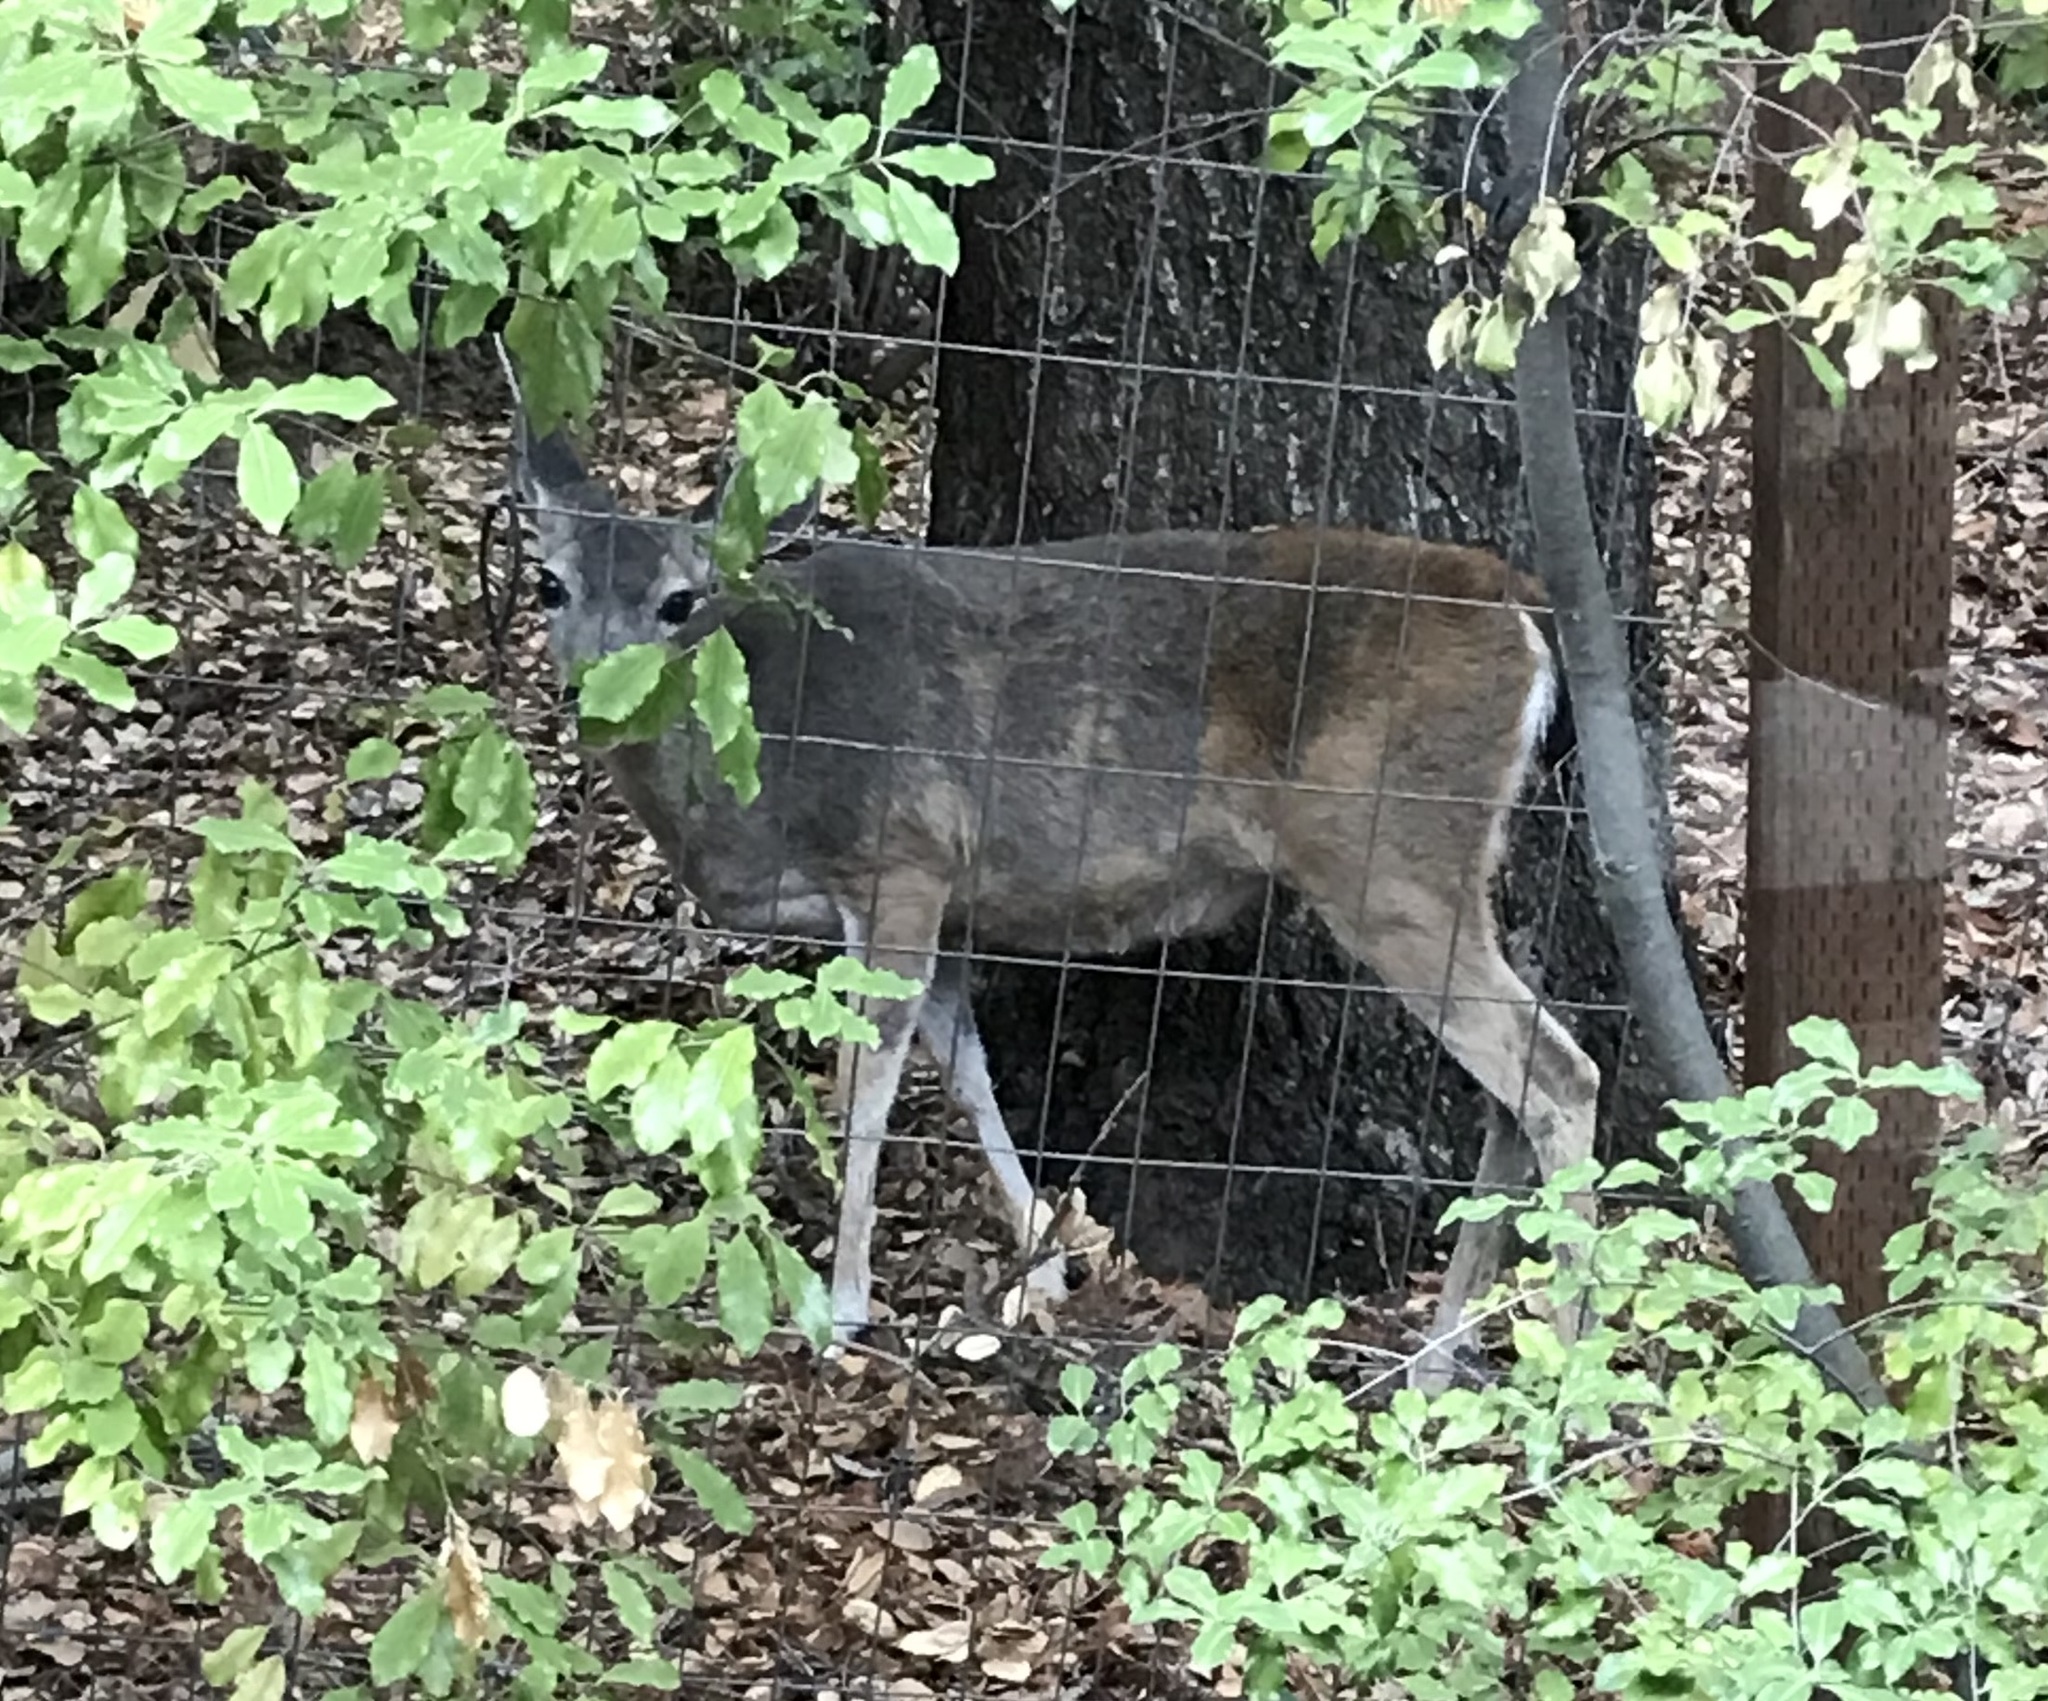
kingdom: Animalia
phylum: Chordata
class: Mammalia
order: Artiodactyla
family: Cervidae
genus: Odocoileus
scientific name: Odocoileus hemionus
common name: Mule deer
